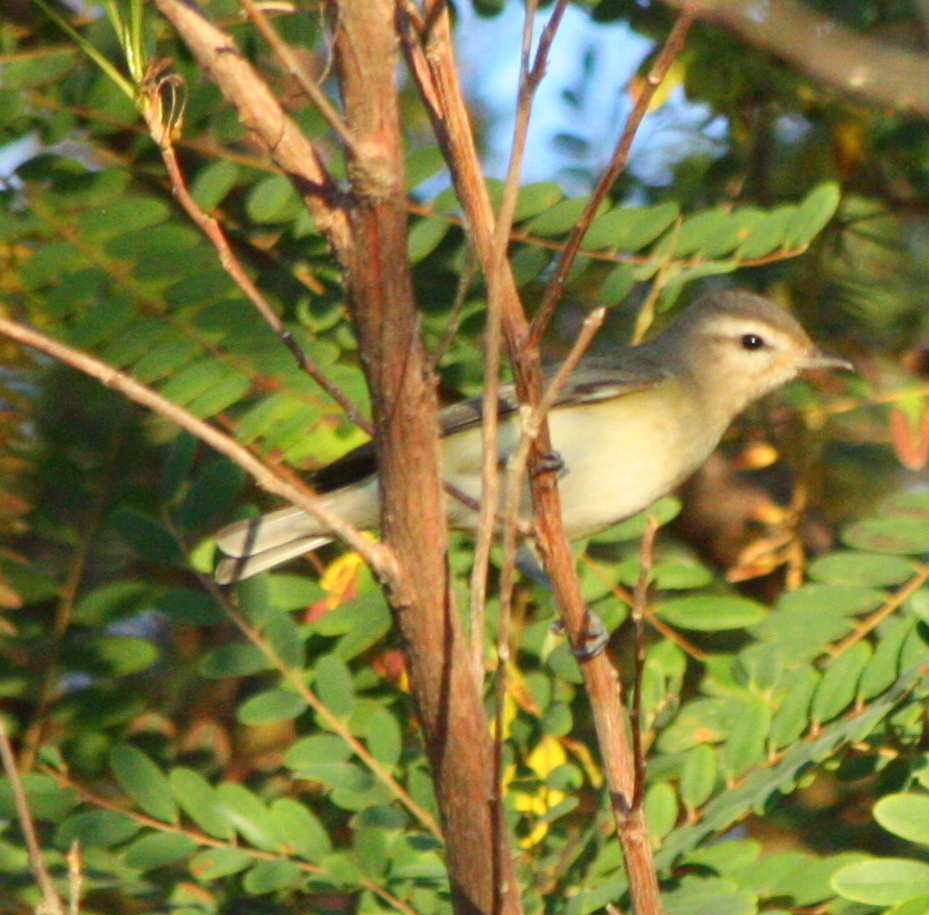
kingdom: Animalia
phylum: Chordata
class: Aves
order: Passeriformes
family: Vireonidae
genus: Vireo
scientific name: Vireo gilvus
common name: Warbling vireo
